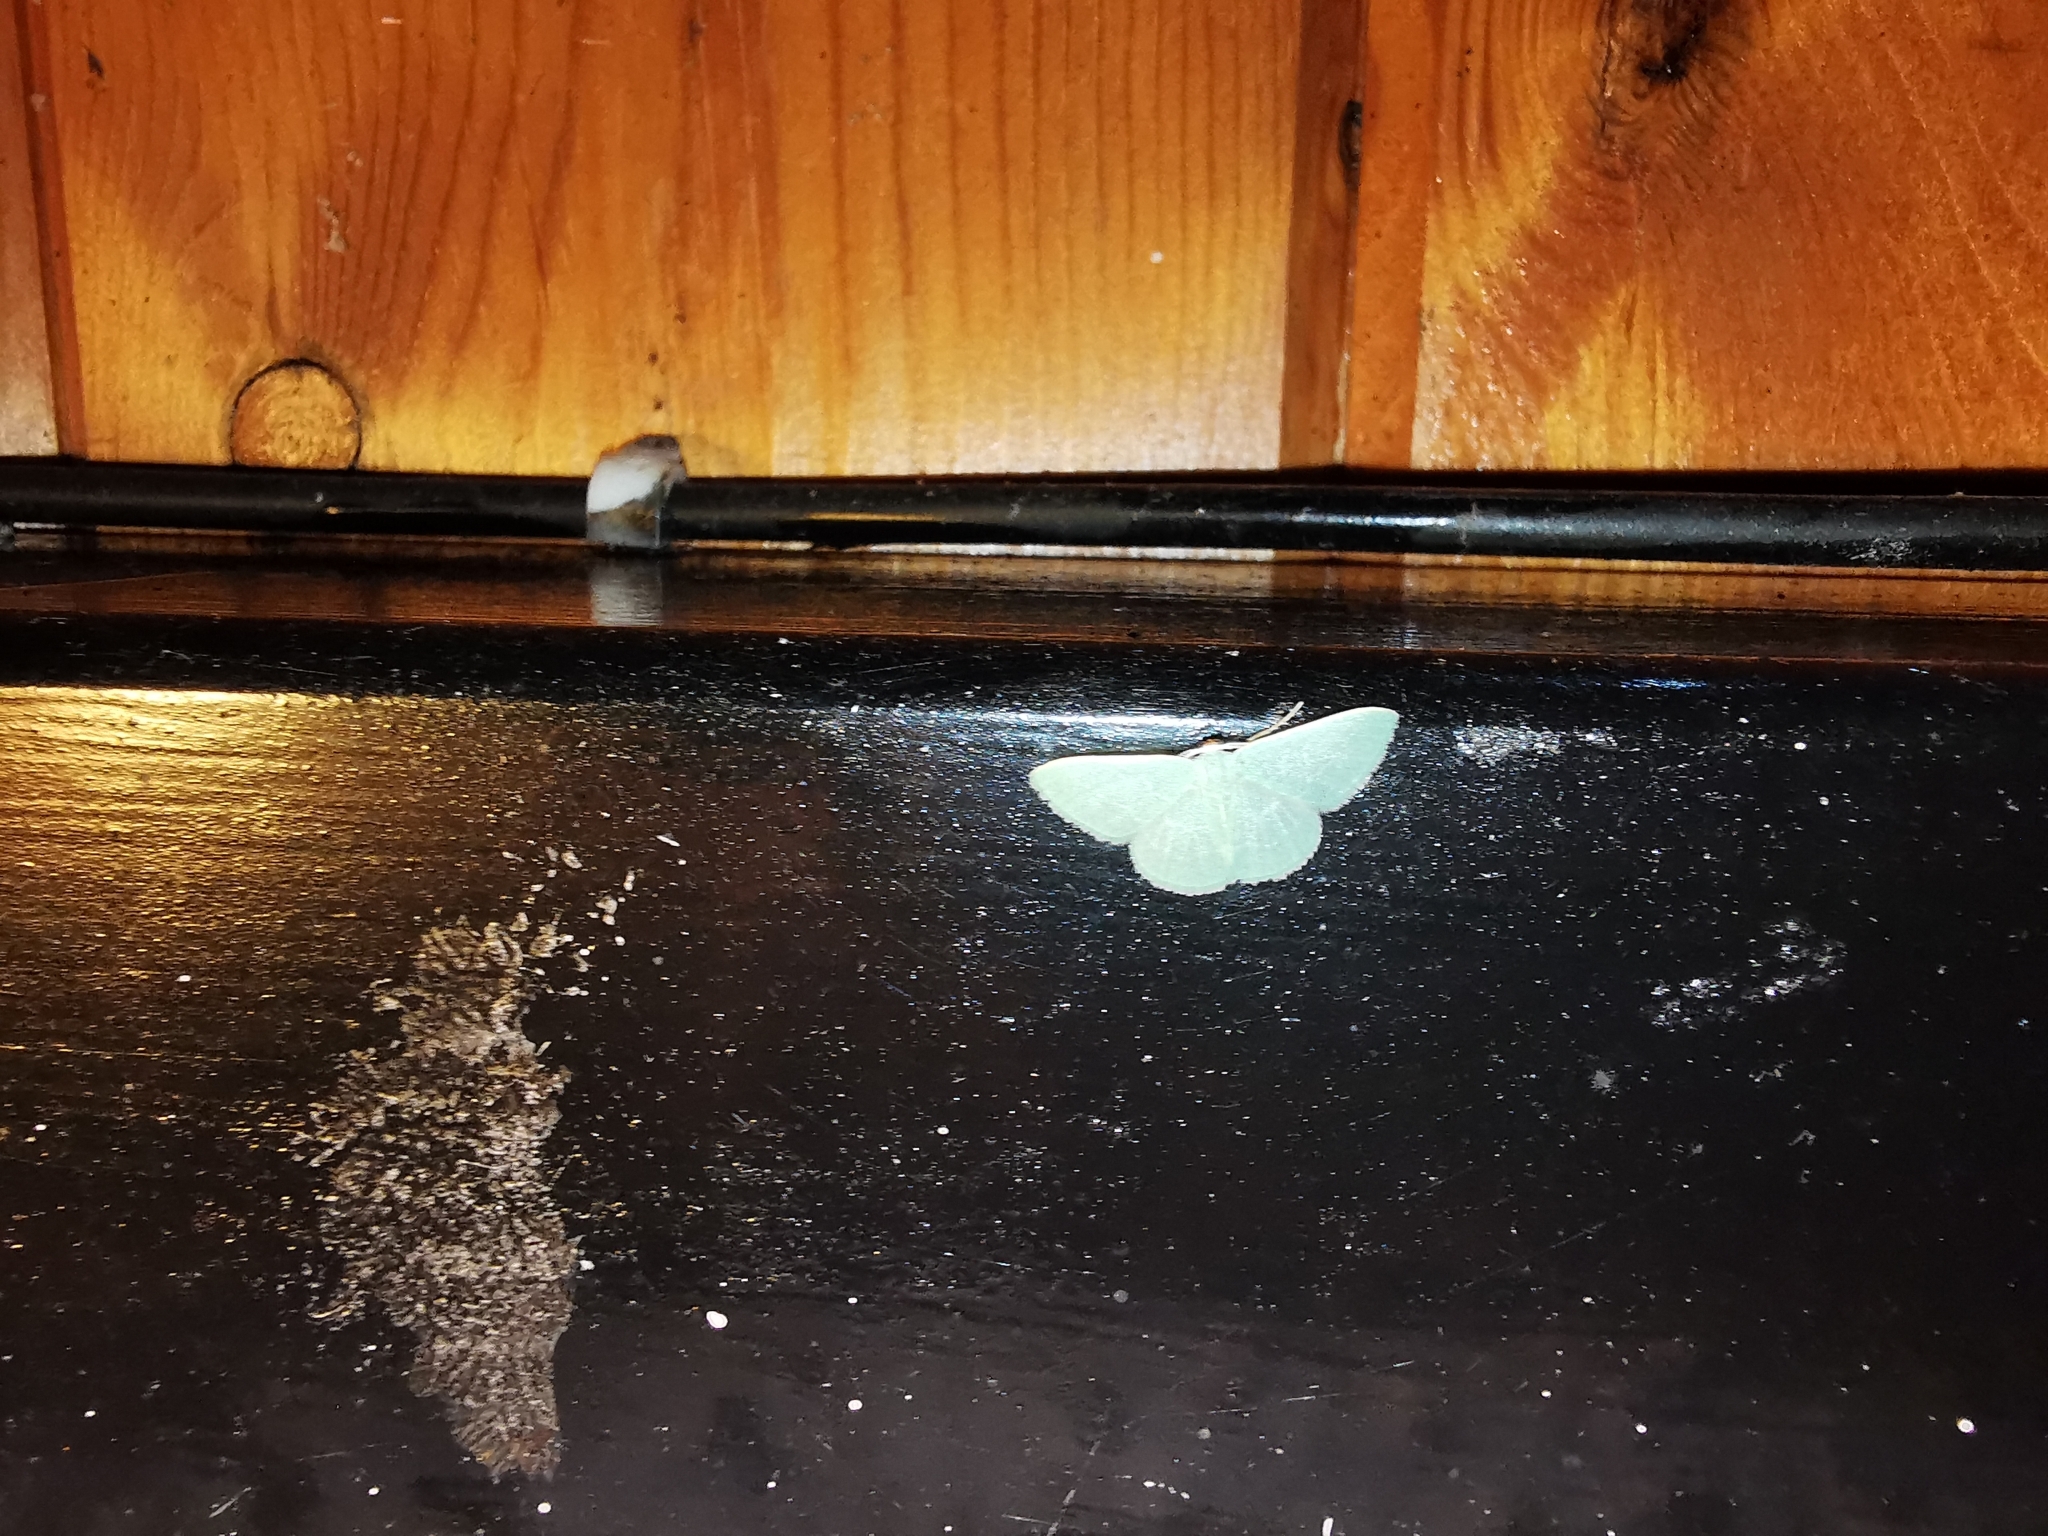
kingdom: Animalia
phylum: Arthropoda
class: Insecta
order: Lepidoptera
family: Geometridae
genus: Chlorissa
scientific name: Chlorissa etruscaria
